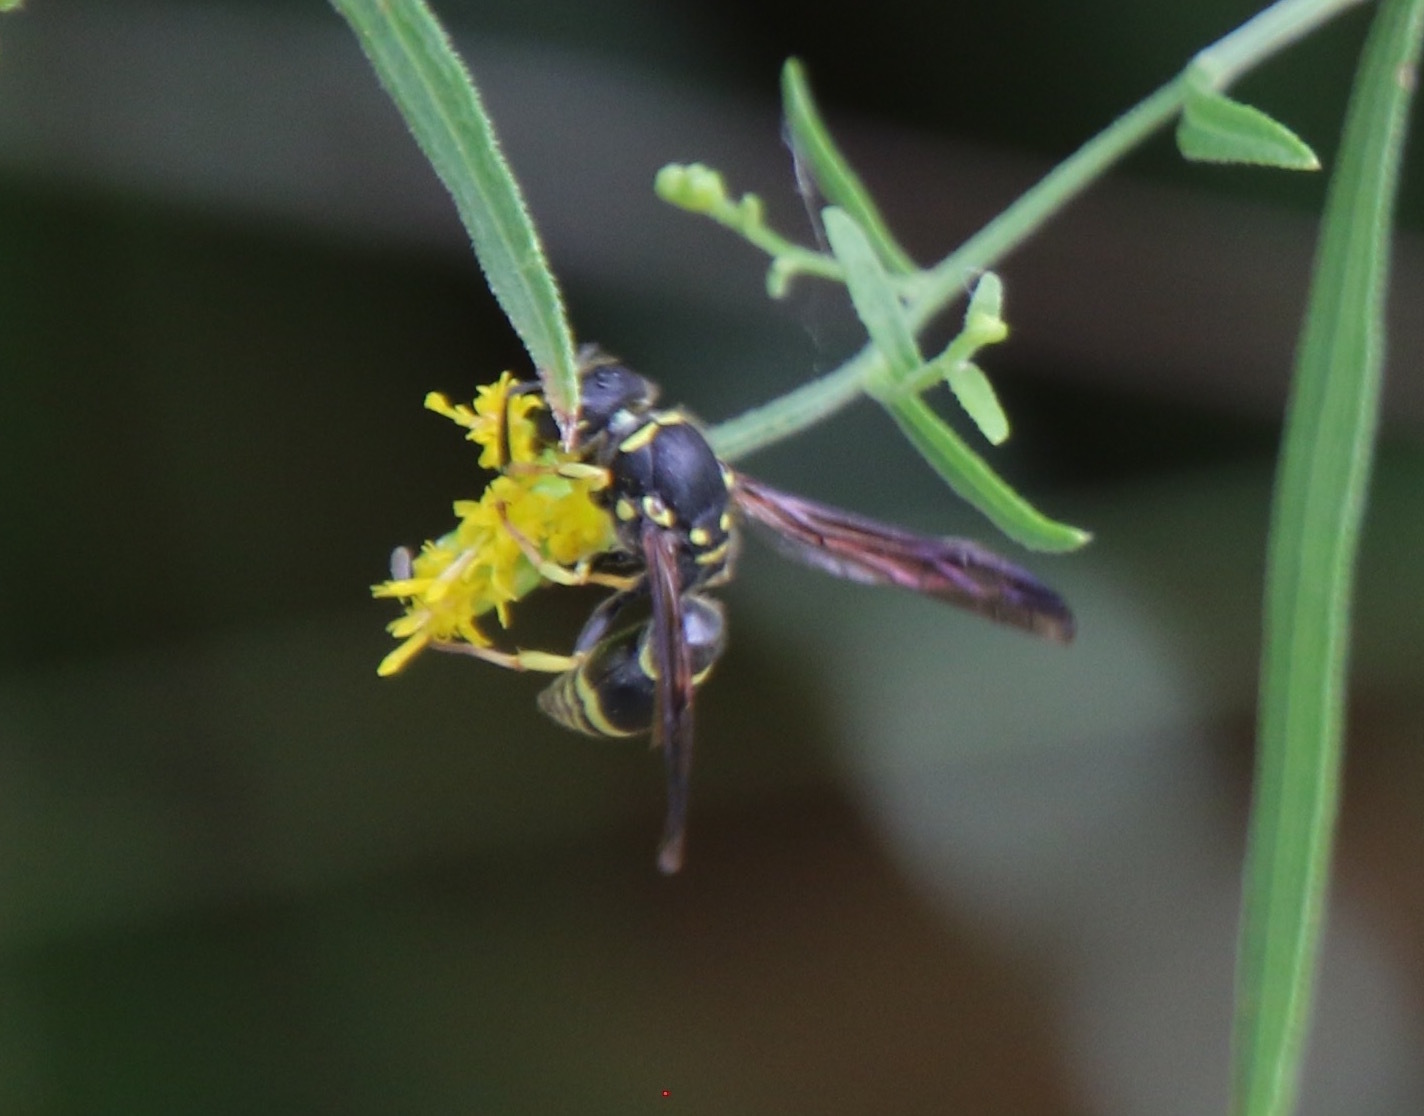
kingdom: Animalia
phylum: Arthropoda
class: Insecta
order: Hymenoptera
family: Vespidae
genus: Ancistrocerus
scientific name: Ancistrocerus adiabatus
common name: Bramble mason wasp
